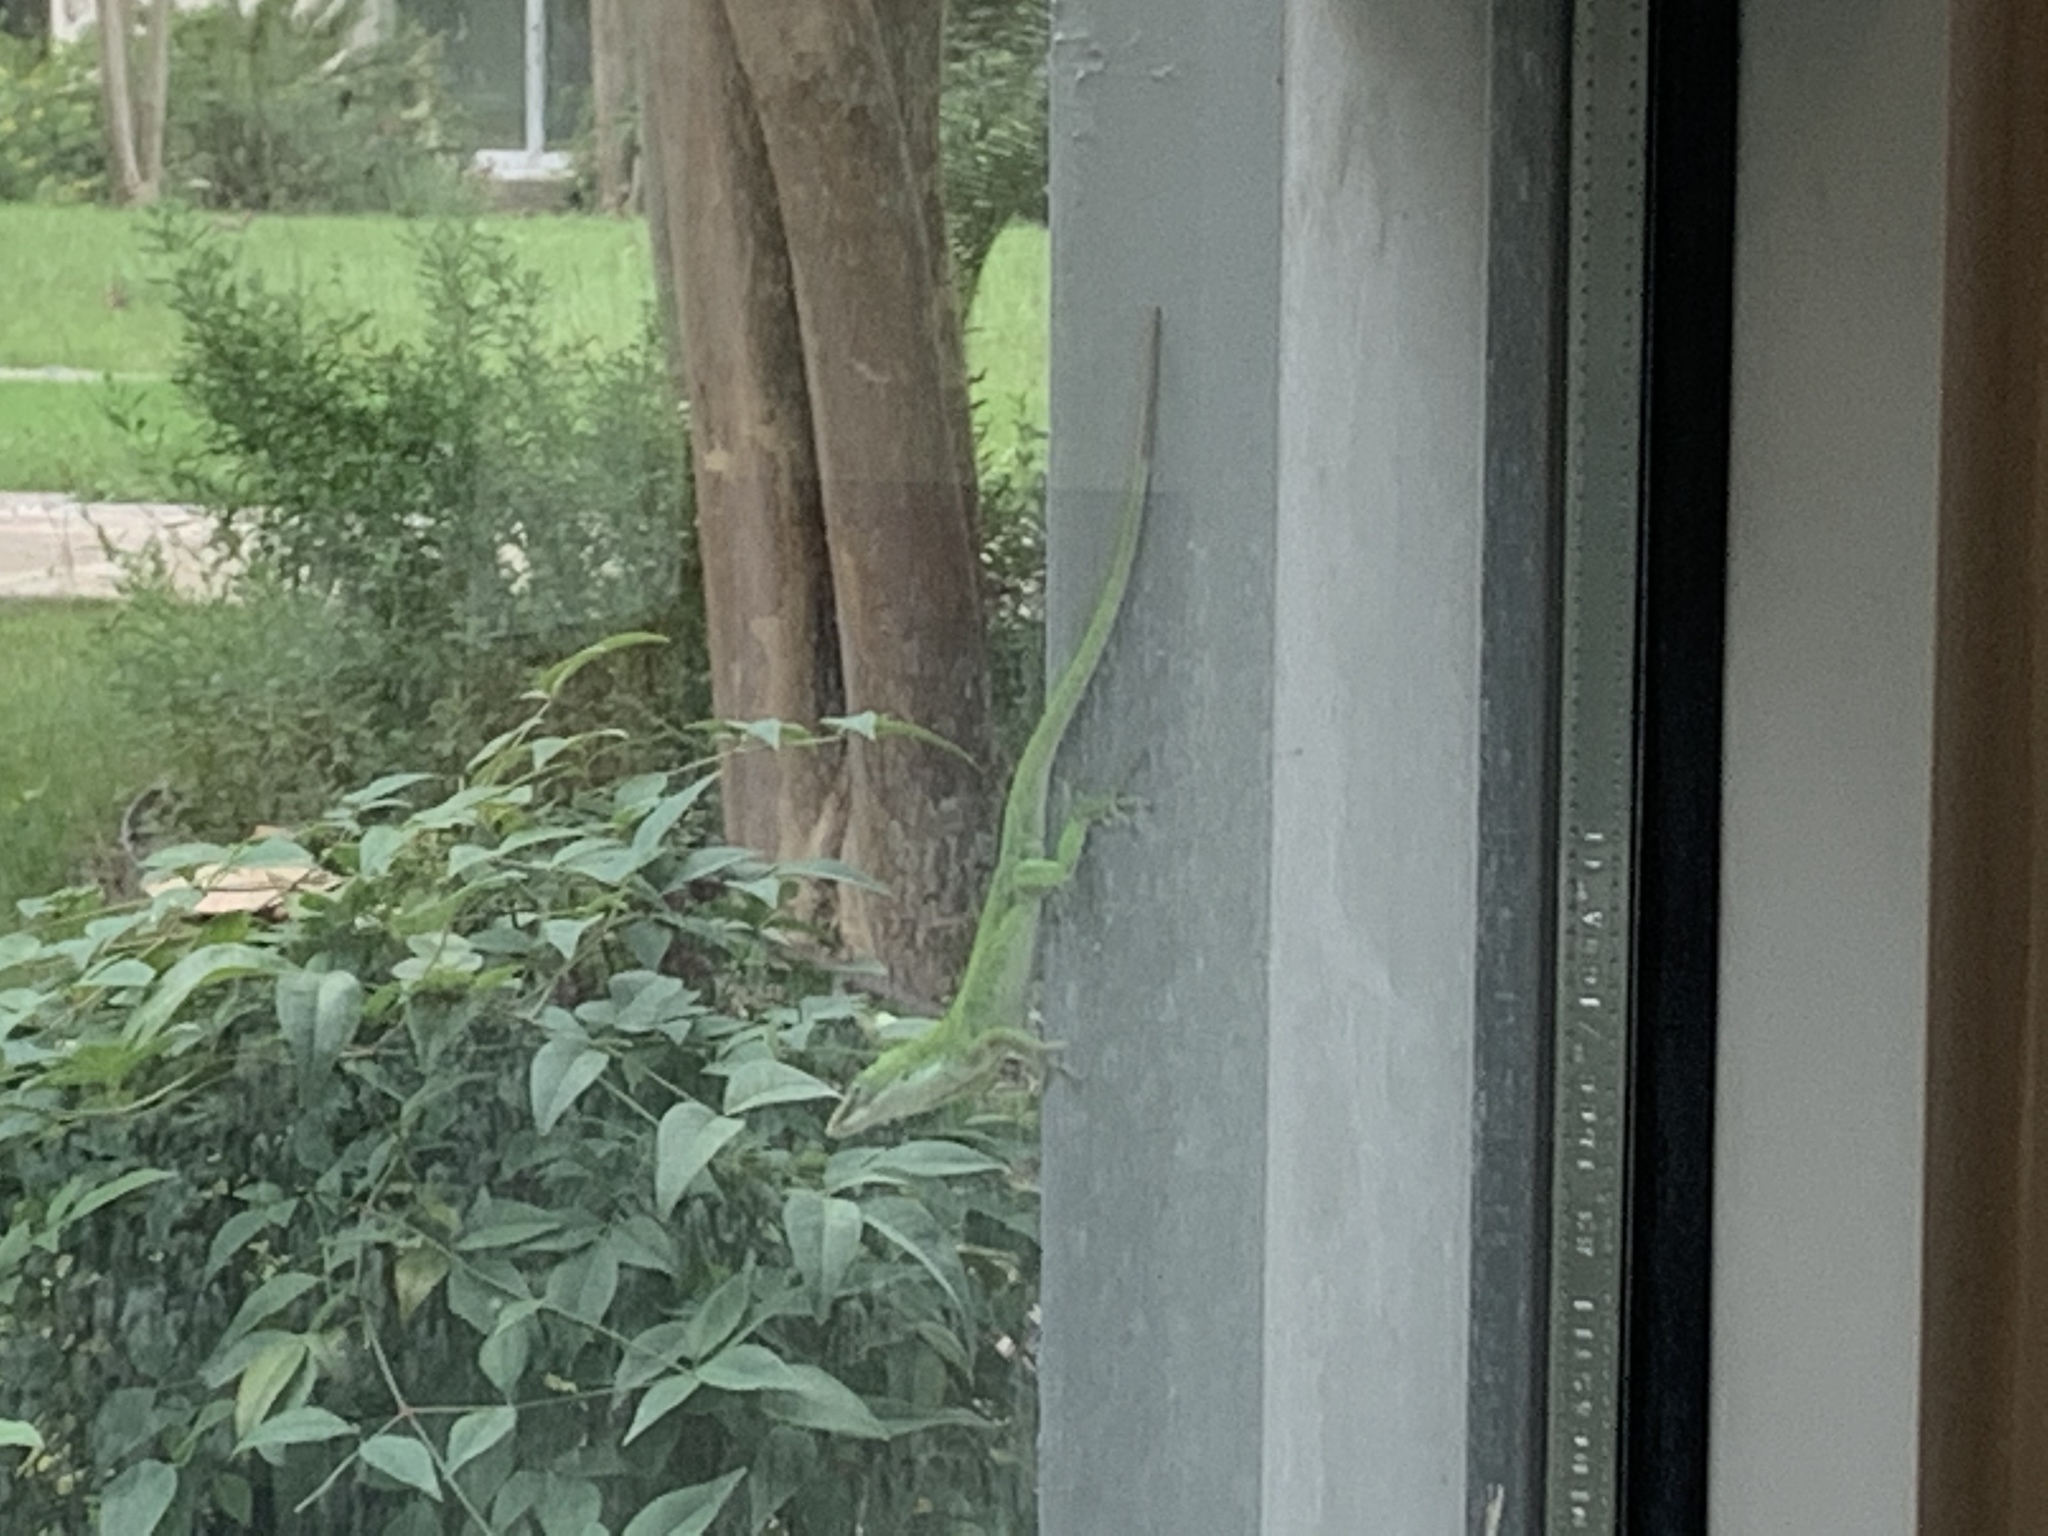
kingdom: Animalia
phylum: Chordata
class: Squamata
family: Dactyloidae
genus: Anolis
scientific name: Anolis carolinensis
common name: Green anole
